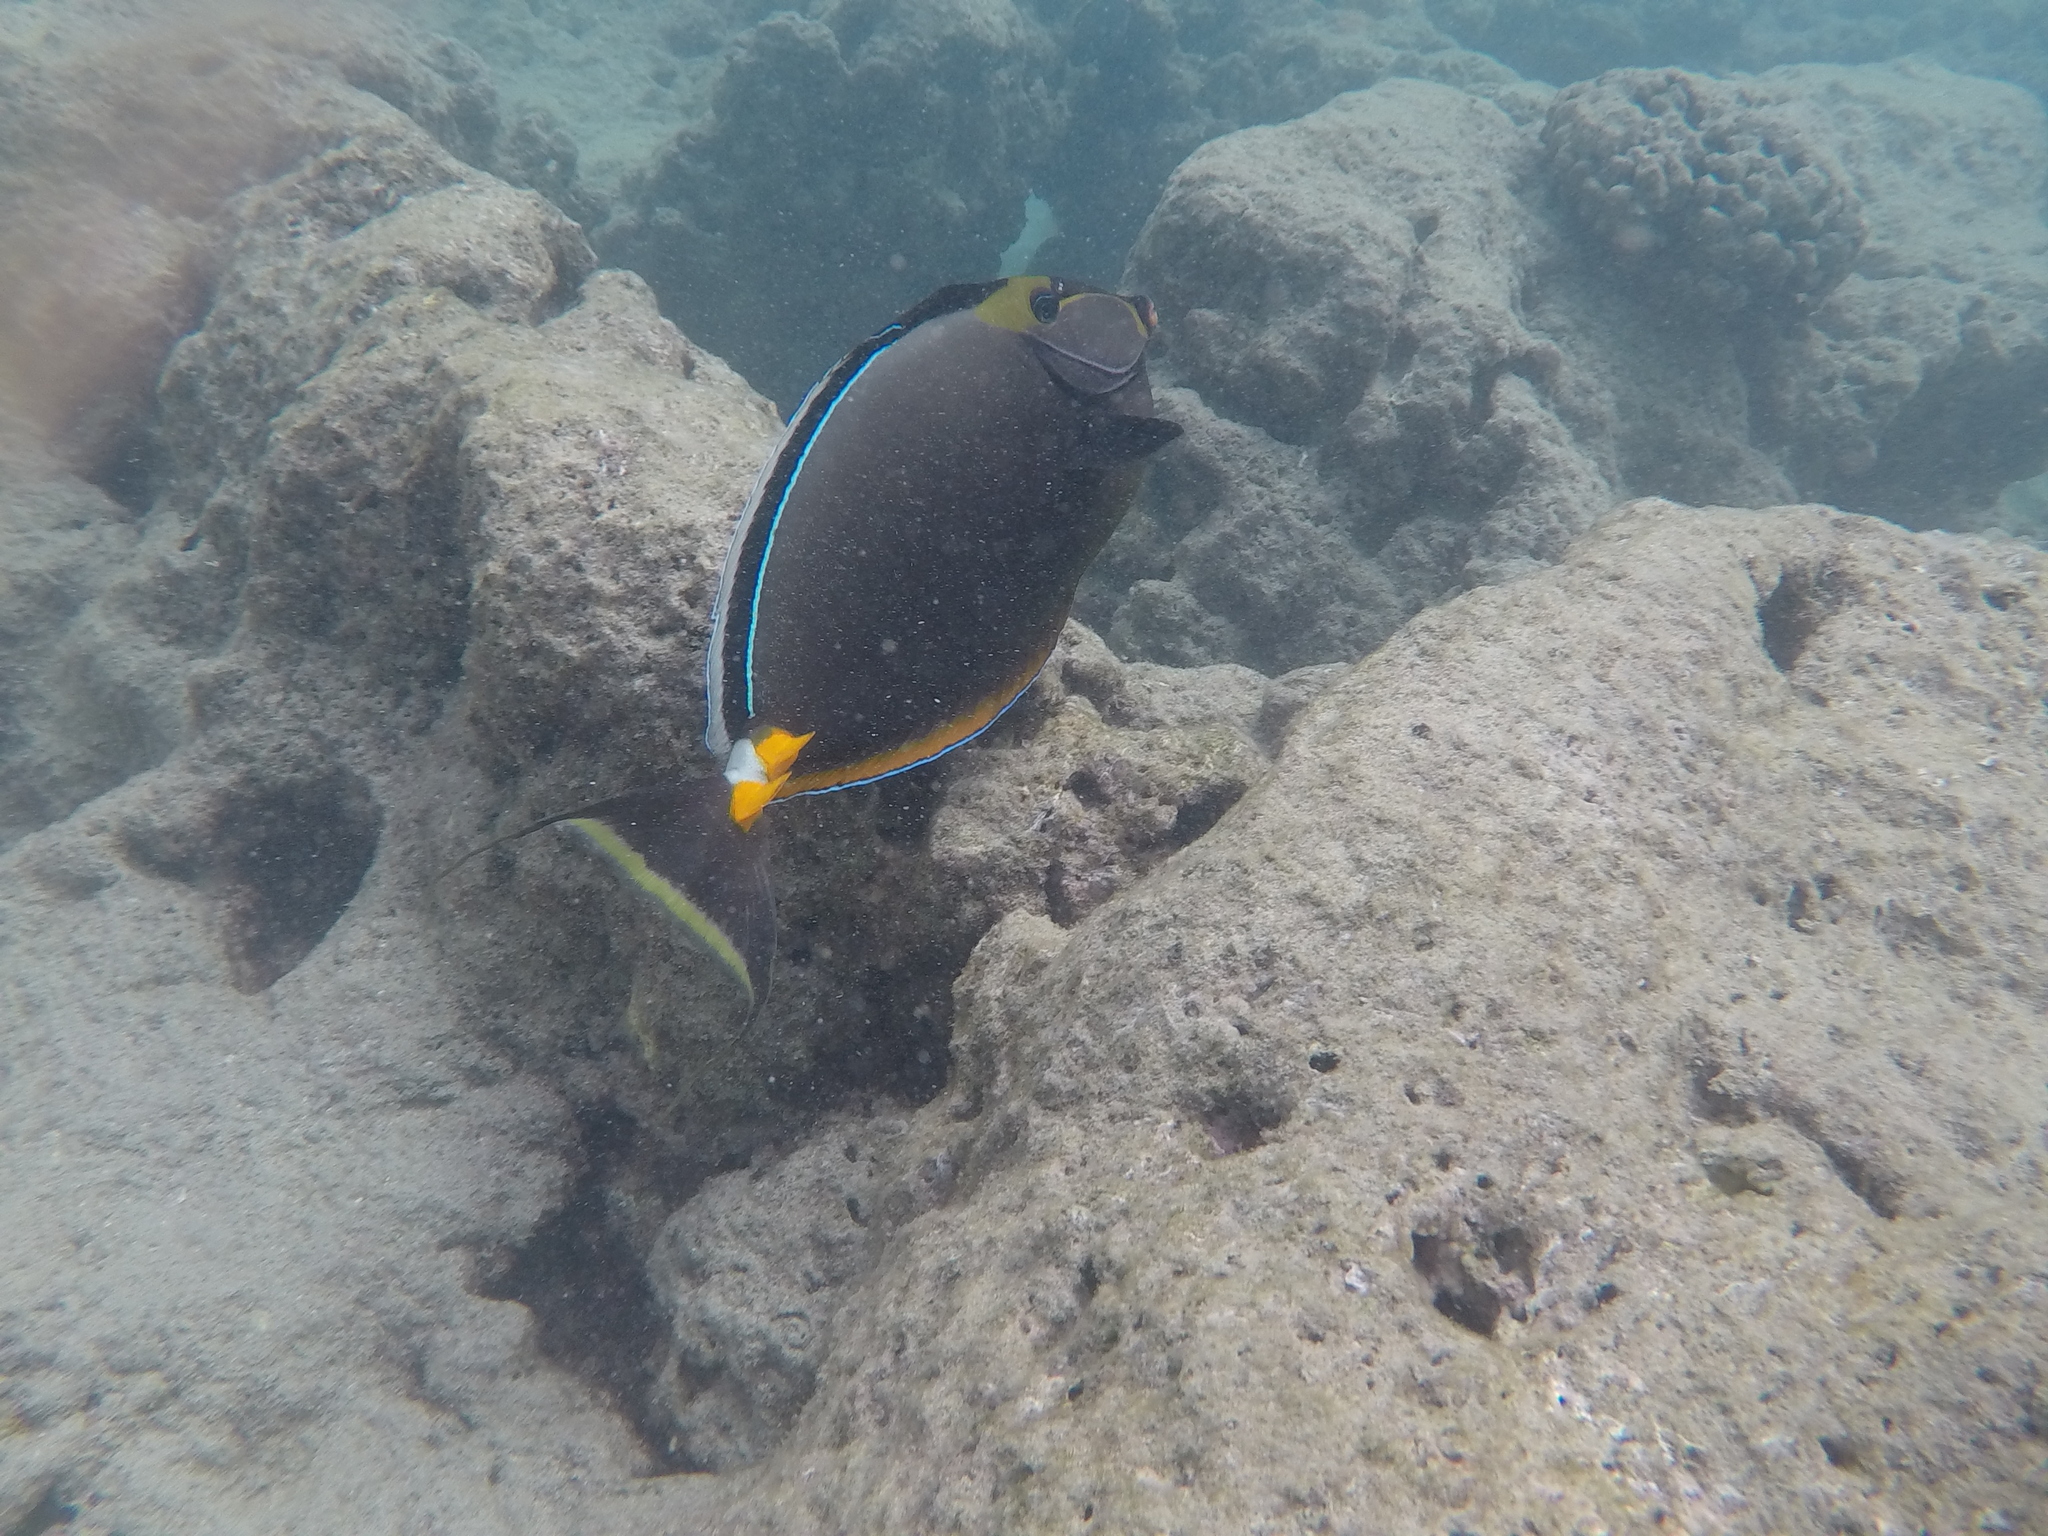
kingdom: Animalia
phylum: Chordata
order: Perciformes
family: Acanthuridae
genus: Naso
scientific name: Naso lituratus
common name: Orangespine unicornfish
